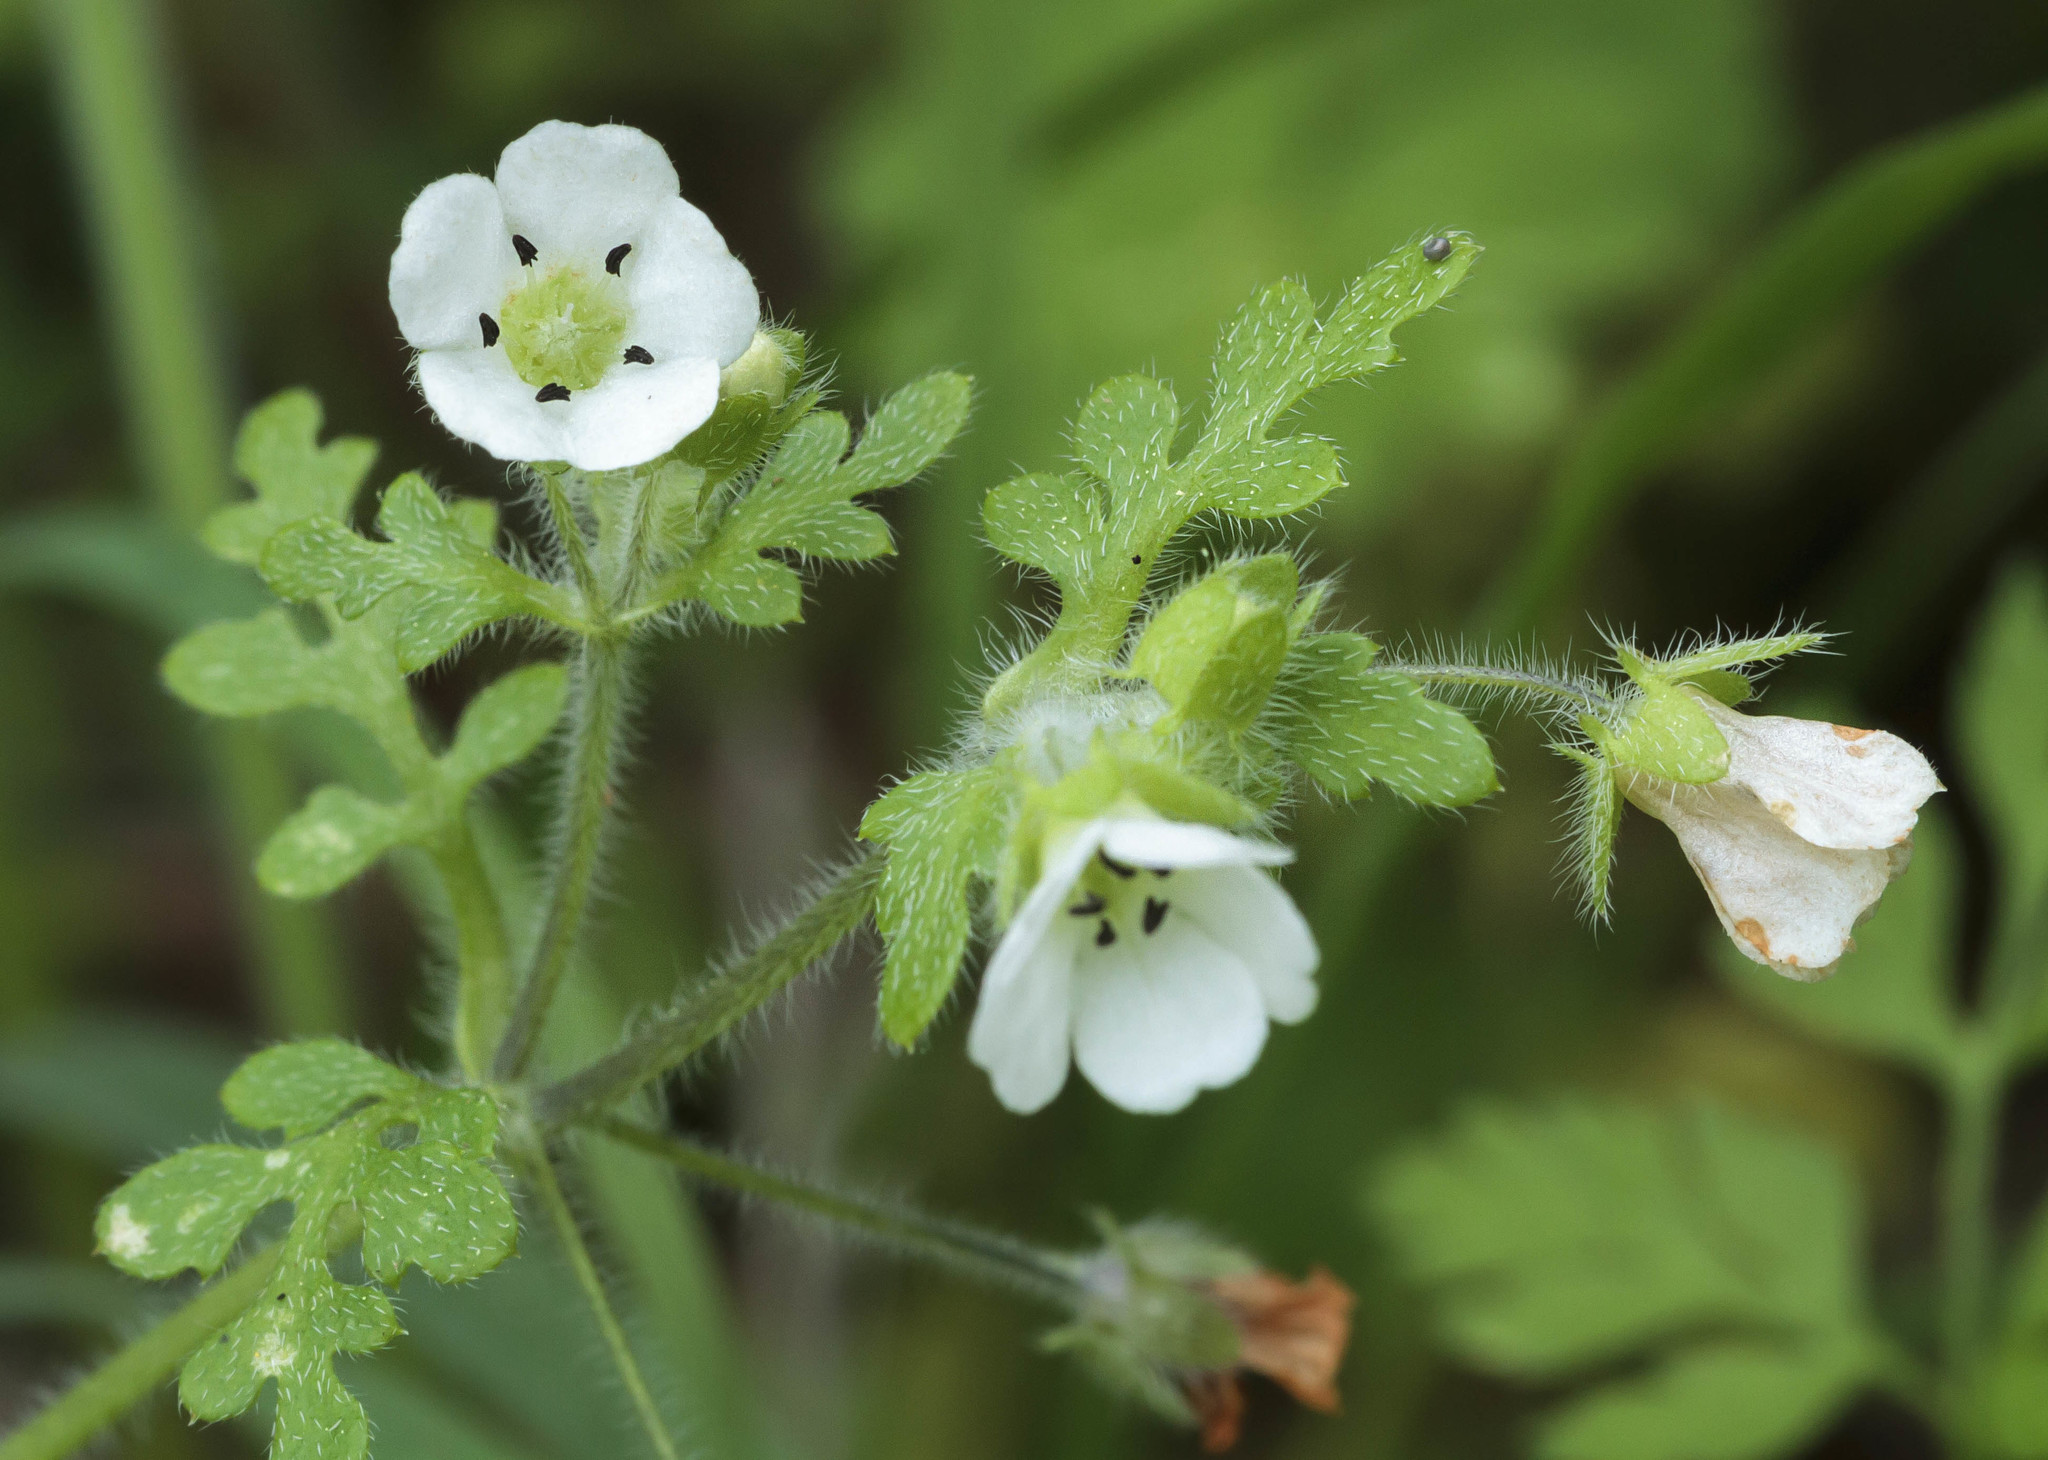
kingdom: Plantae
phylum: Tracheophyta
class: Magnoliopsida
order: Boraginales
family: Hydrophyllaceae
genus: Nemophila
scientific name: Nemophila heterophylla
